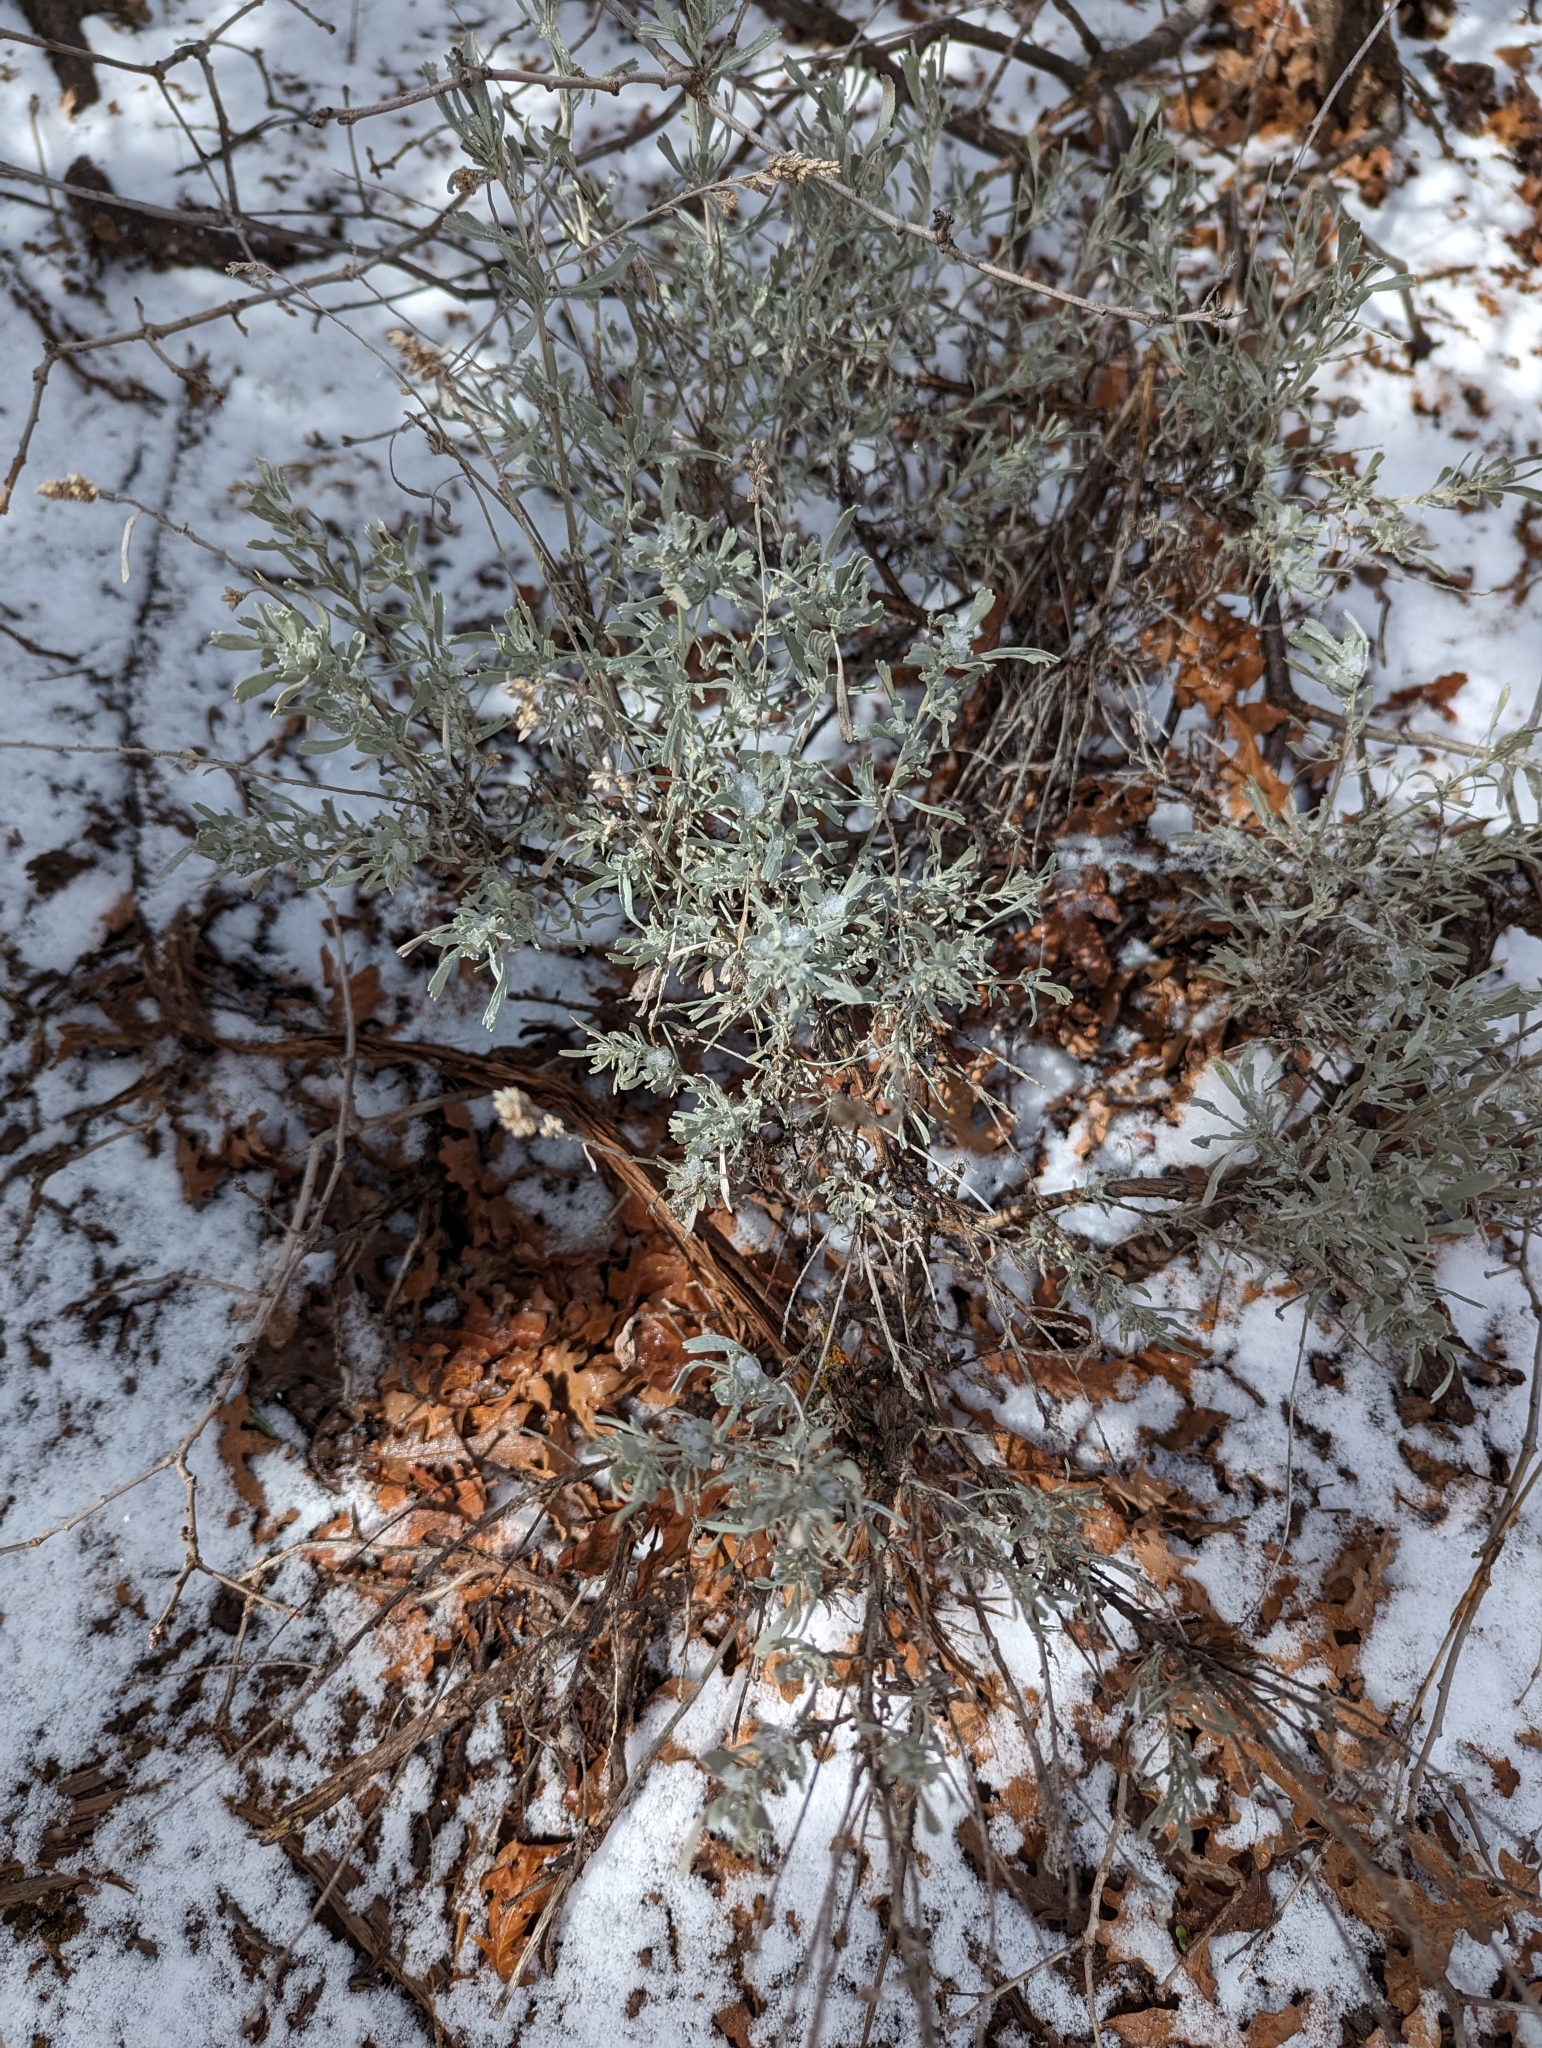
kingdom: Plantae
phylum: Tracheophyta
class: Magnoliopsida
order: Asterales
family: Asteraceae
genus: Artemisia
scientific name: Artemisia tridentata
